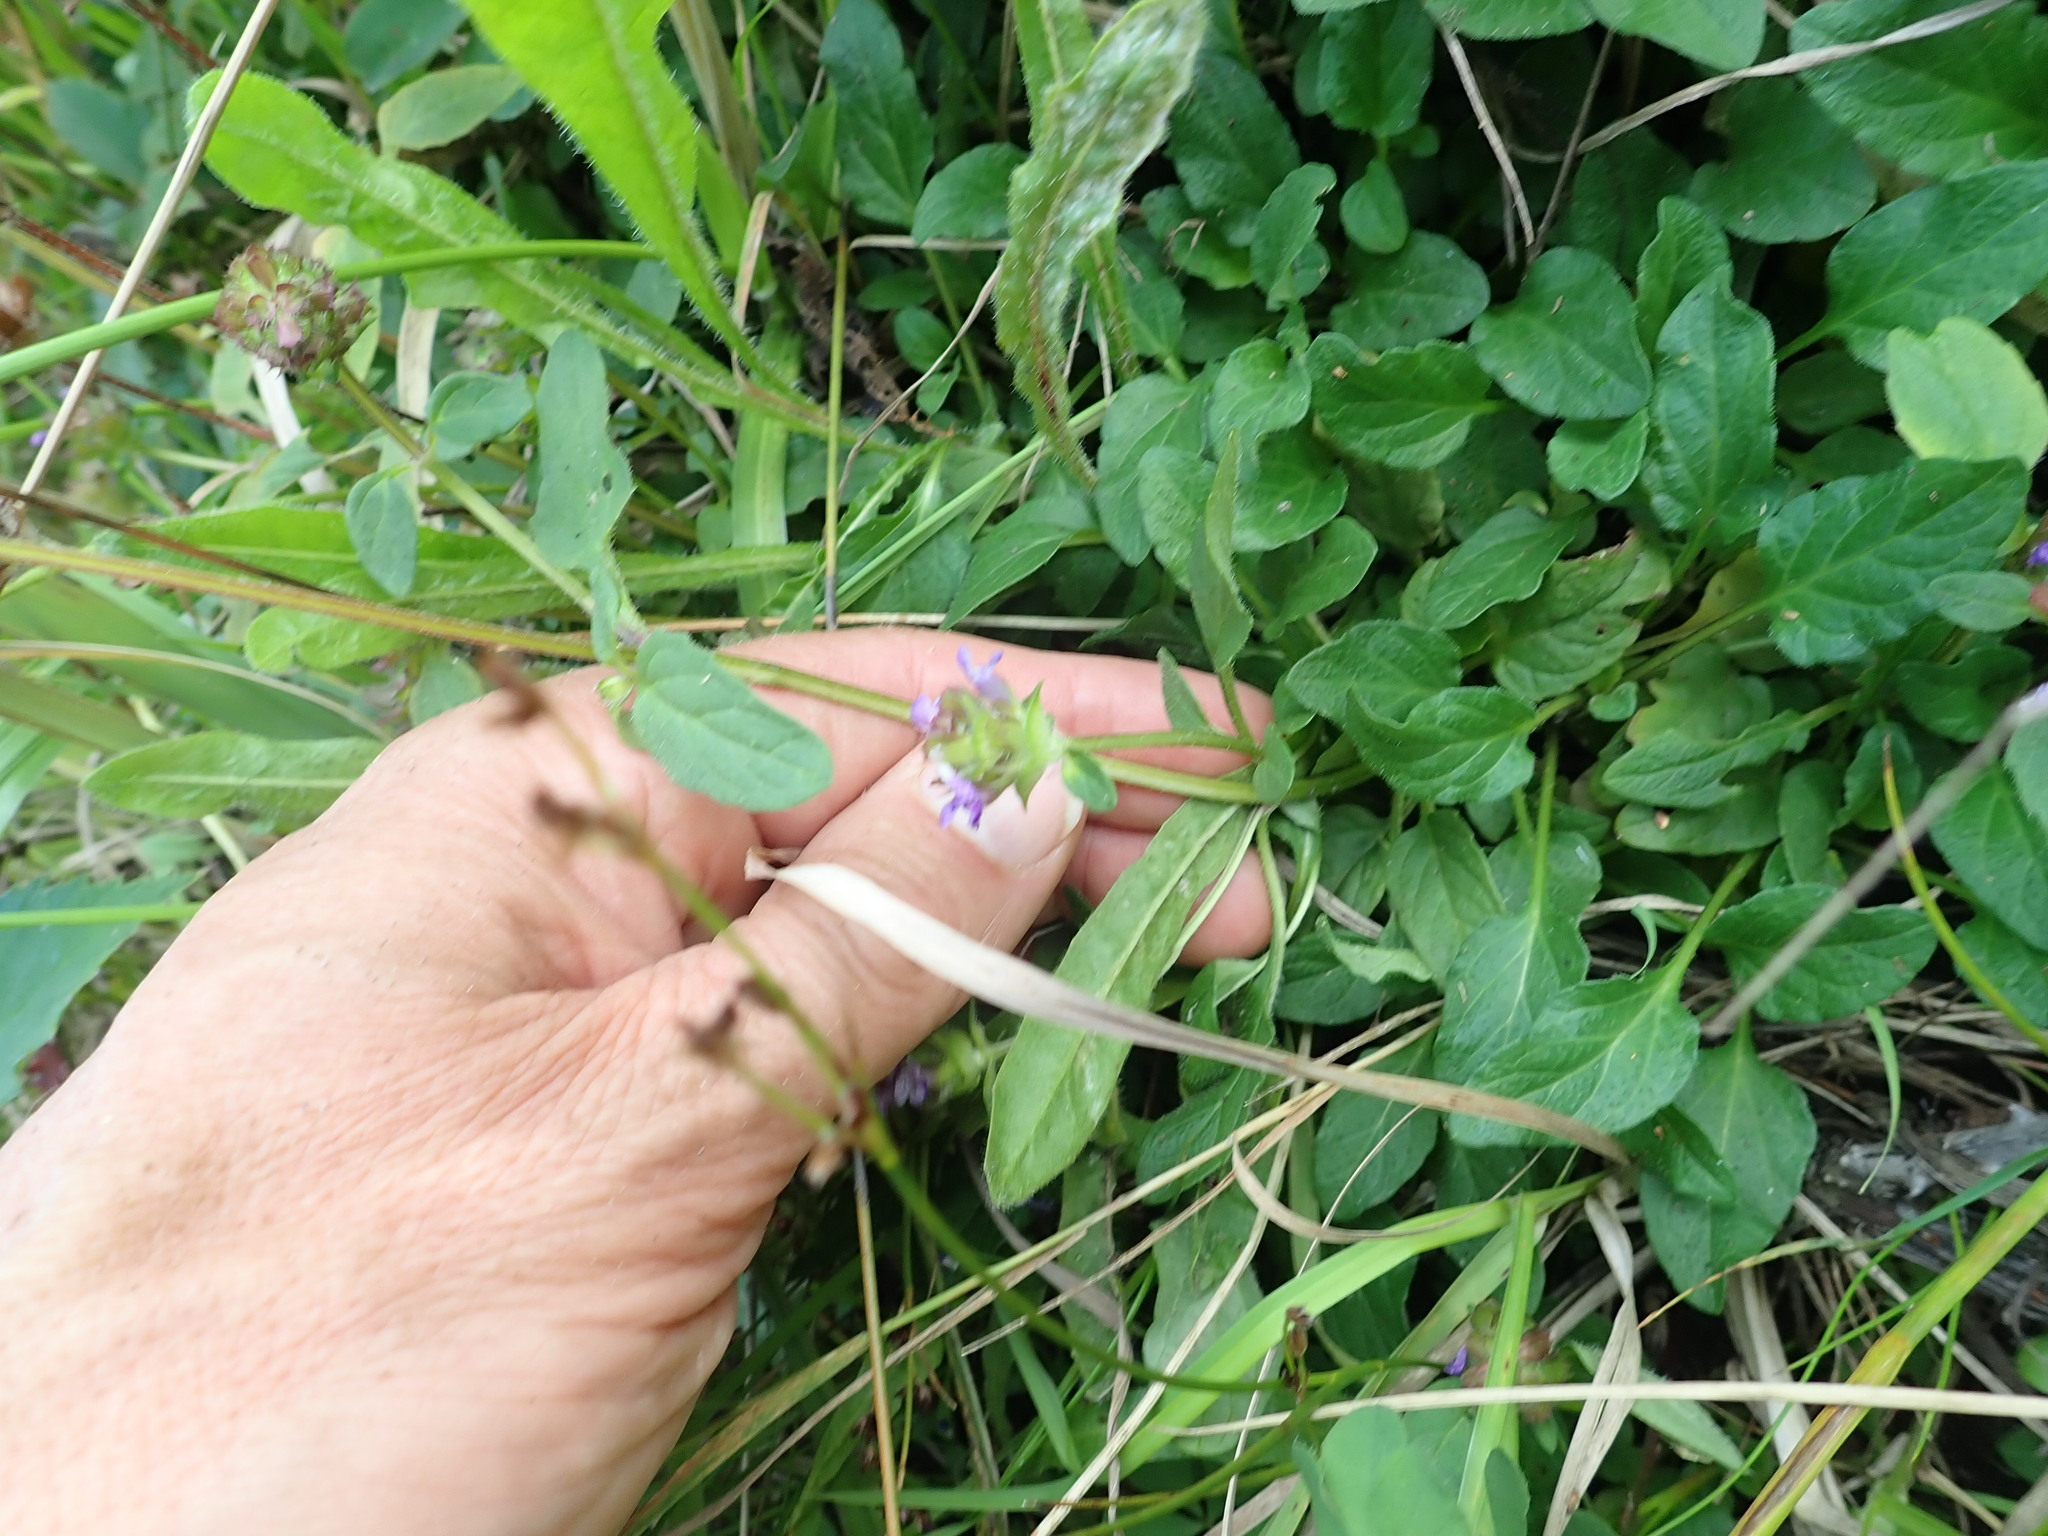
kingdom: Plantae
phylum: Tracheophyta
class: Magnoliopsida
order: Lamiales
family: Lamiaceae
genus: Prunella
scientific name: Prunella vulgaris
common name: Heal-all
